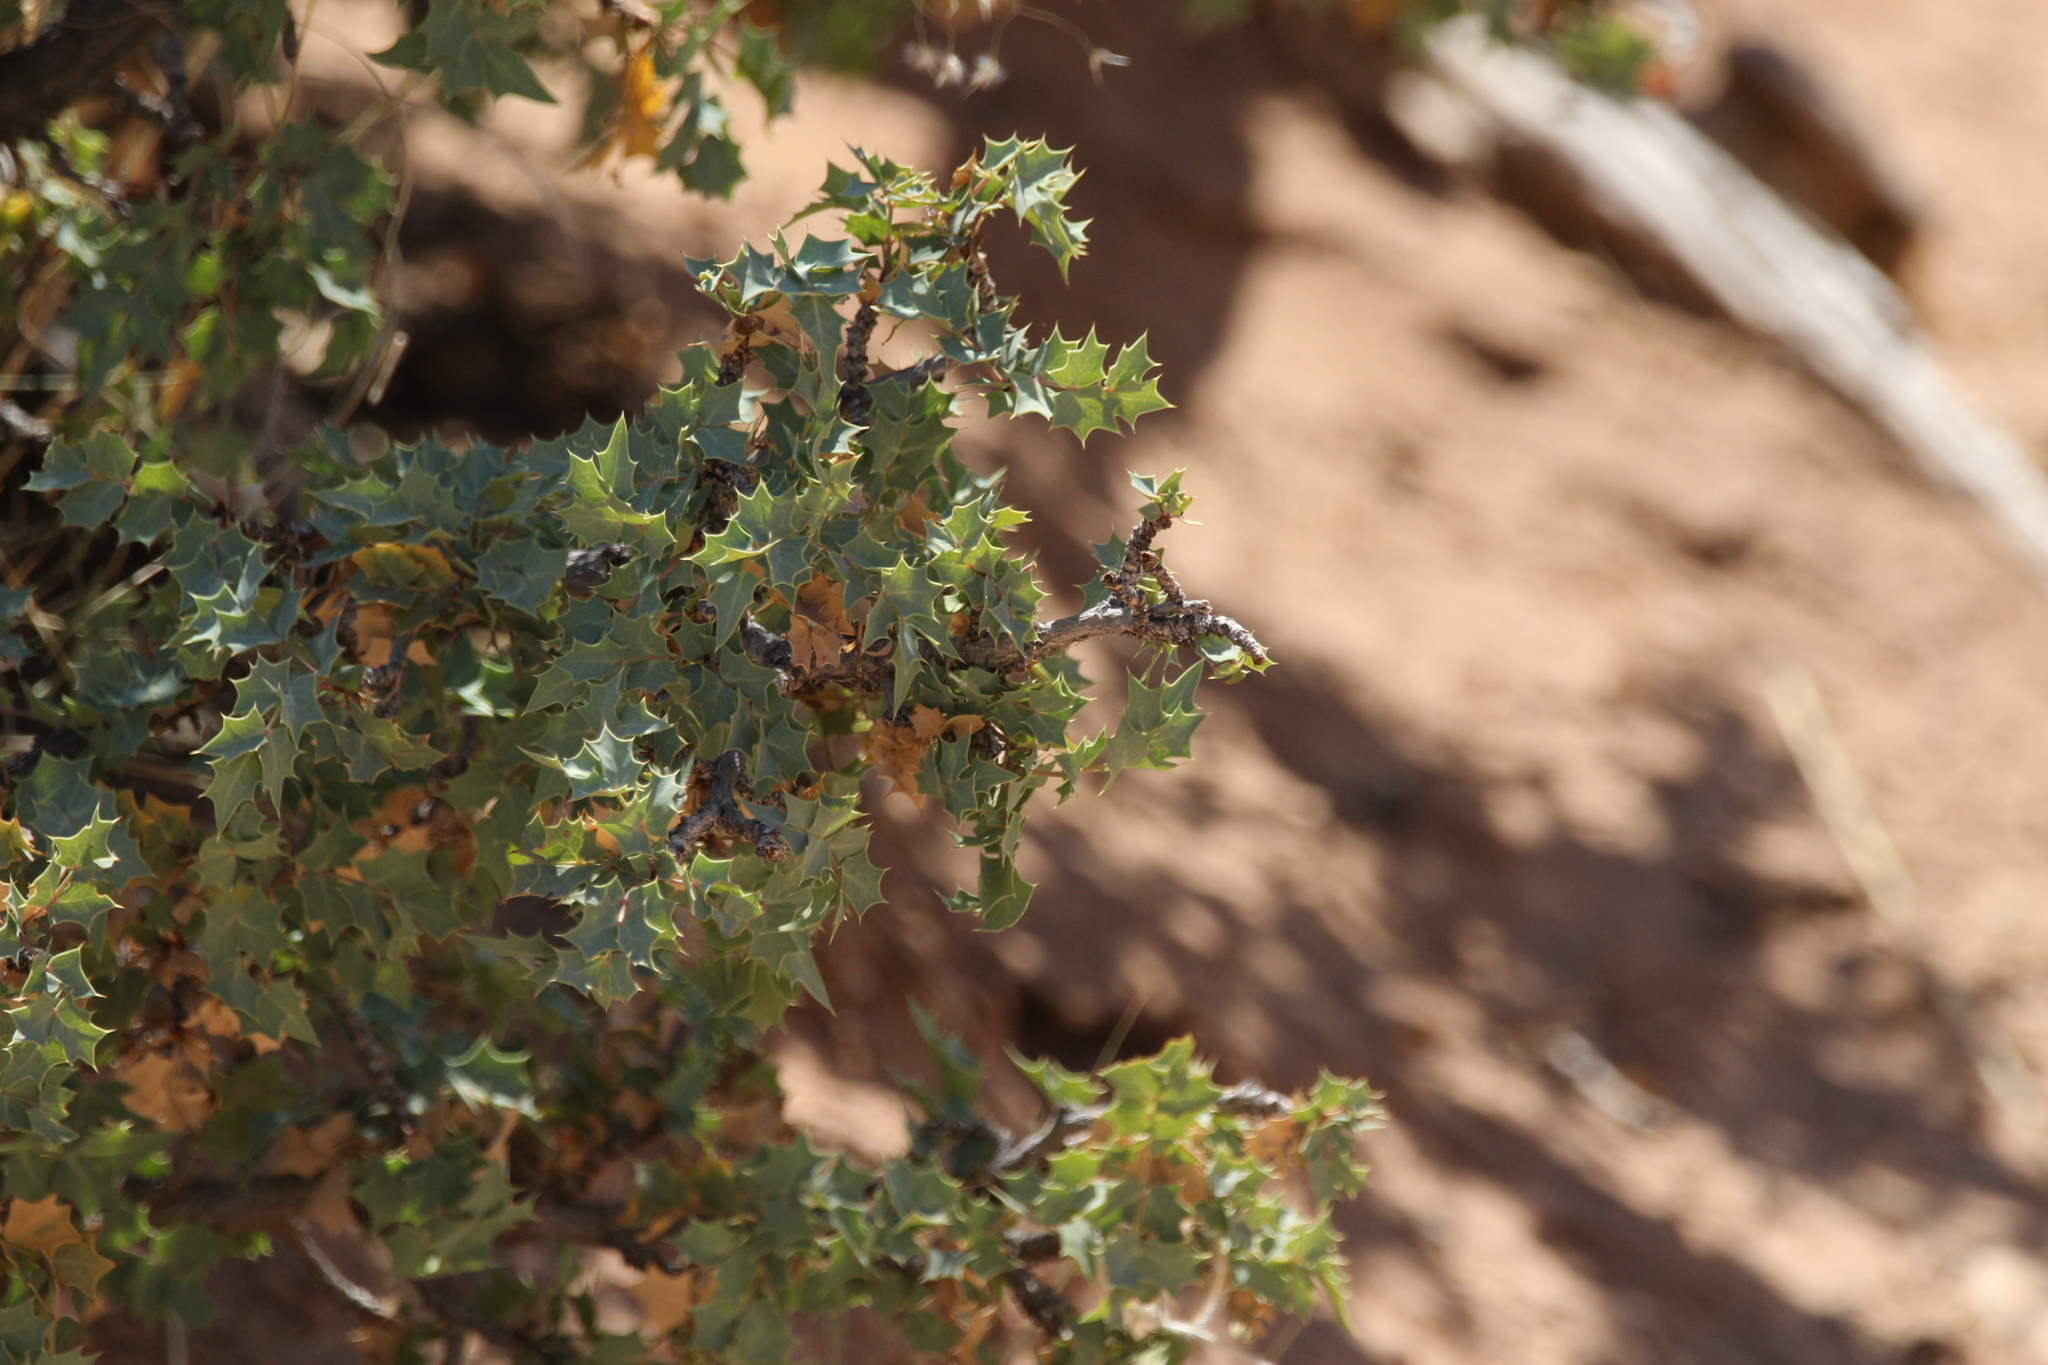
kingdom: Plantae
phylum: Tracheophyta
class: Magnoliopsida
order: Ranunculales
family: Berberidaceae
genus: Alloberberis
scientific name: Alloberberis fremontii
